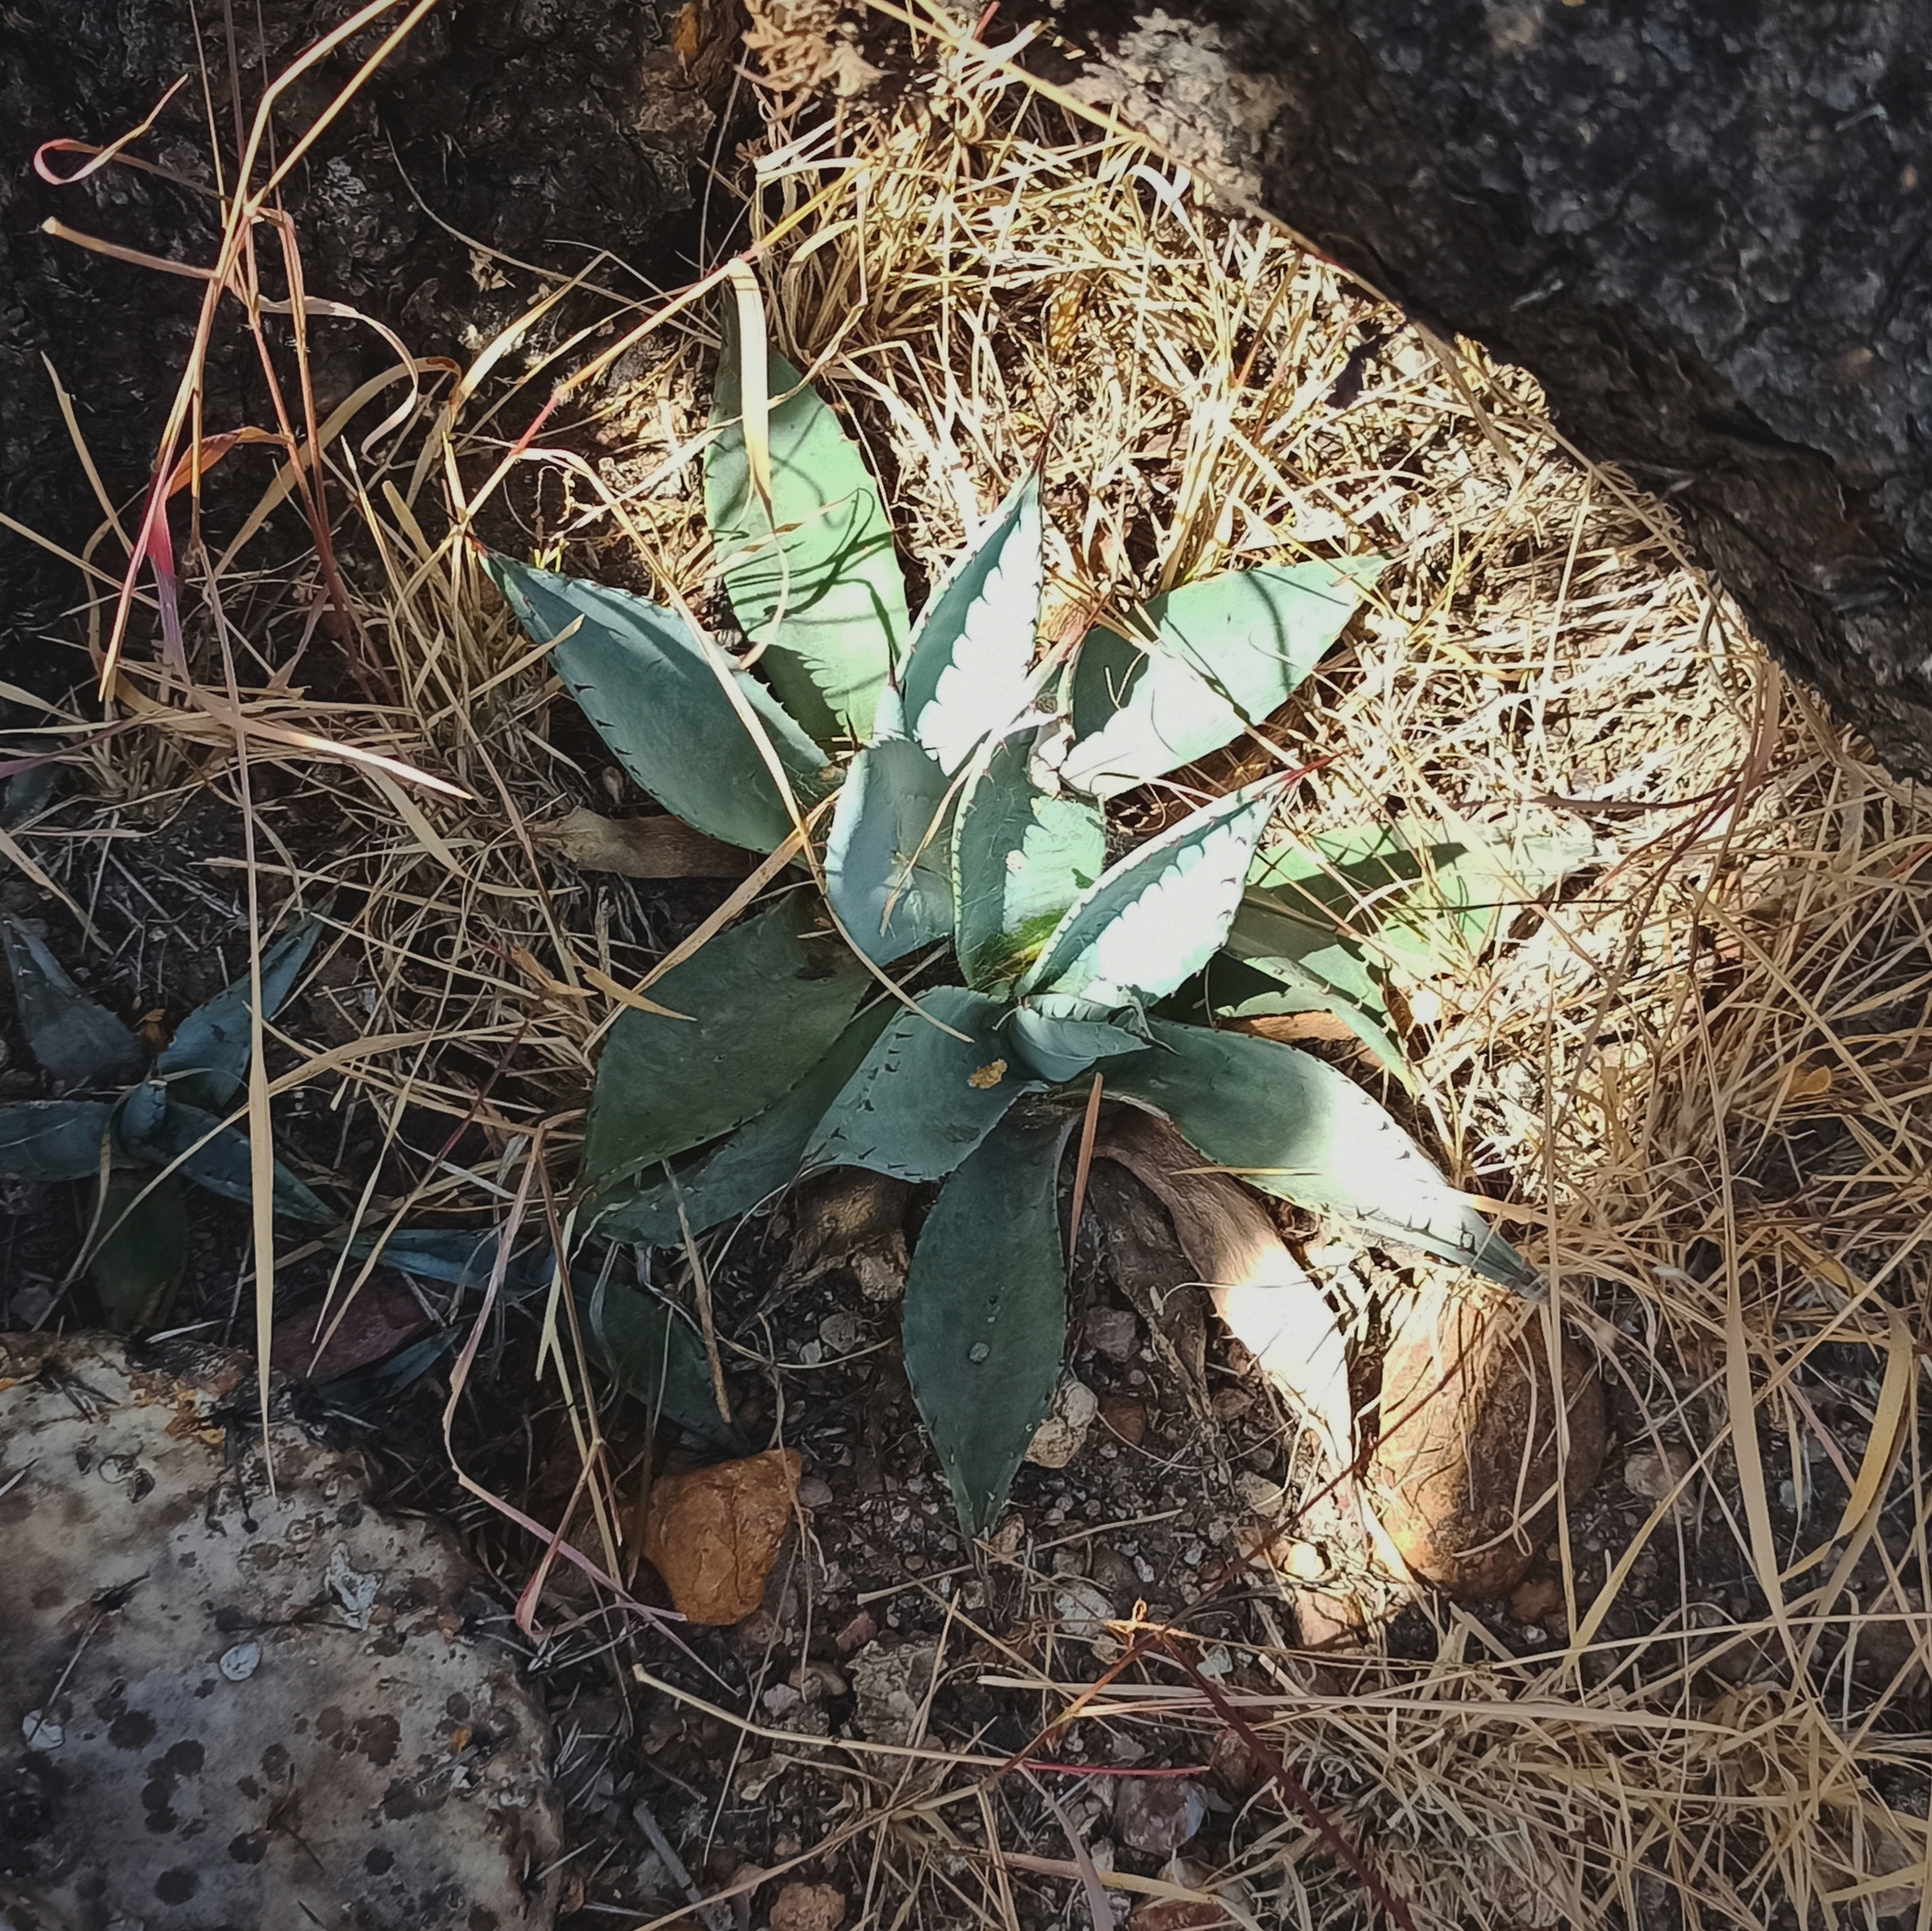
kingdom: Plantae
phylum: Tracheophyta
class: Liliopsida
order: Asparagales
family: Asparagaceae
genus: Agave
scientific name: Agave americana
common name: Centuryplant
